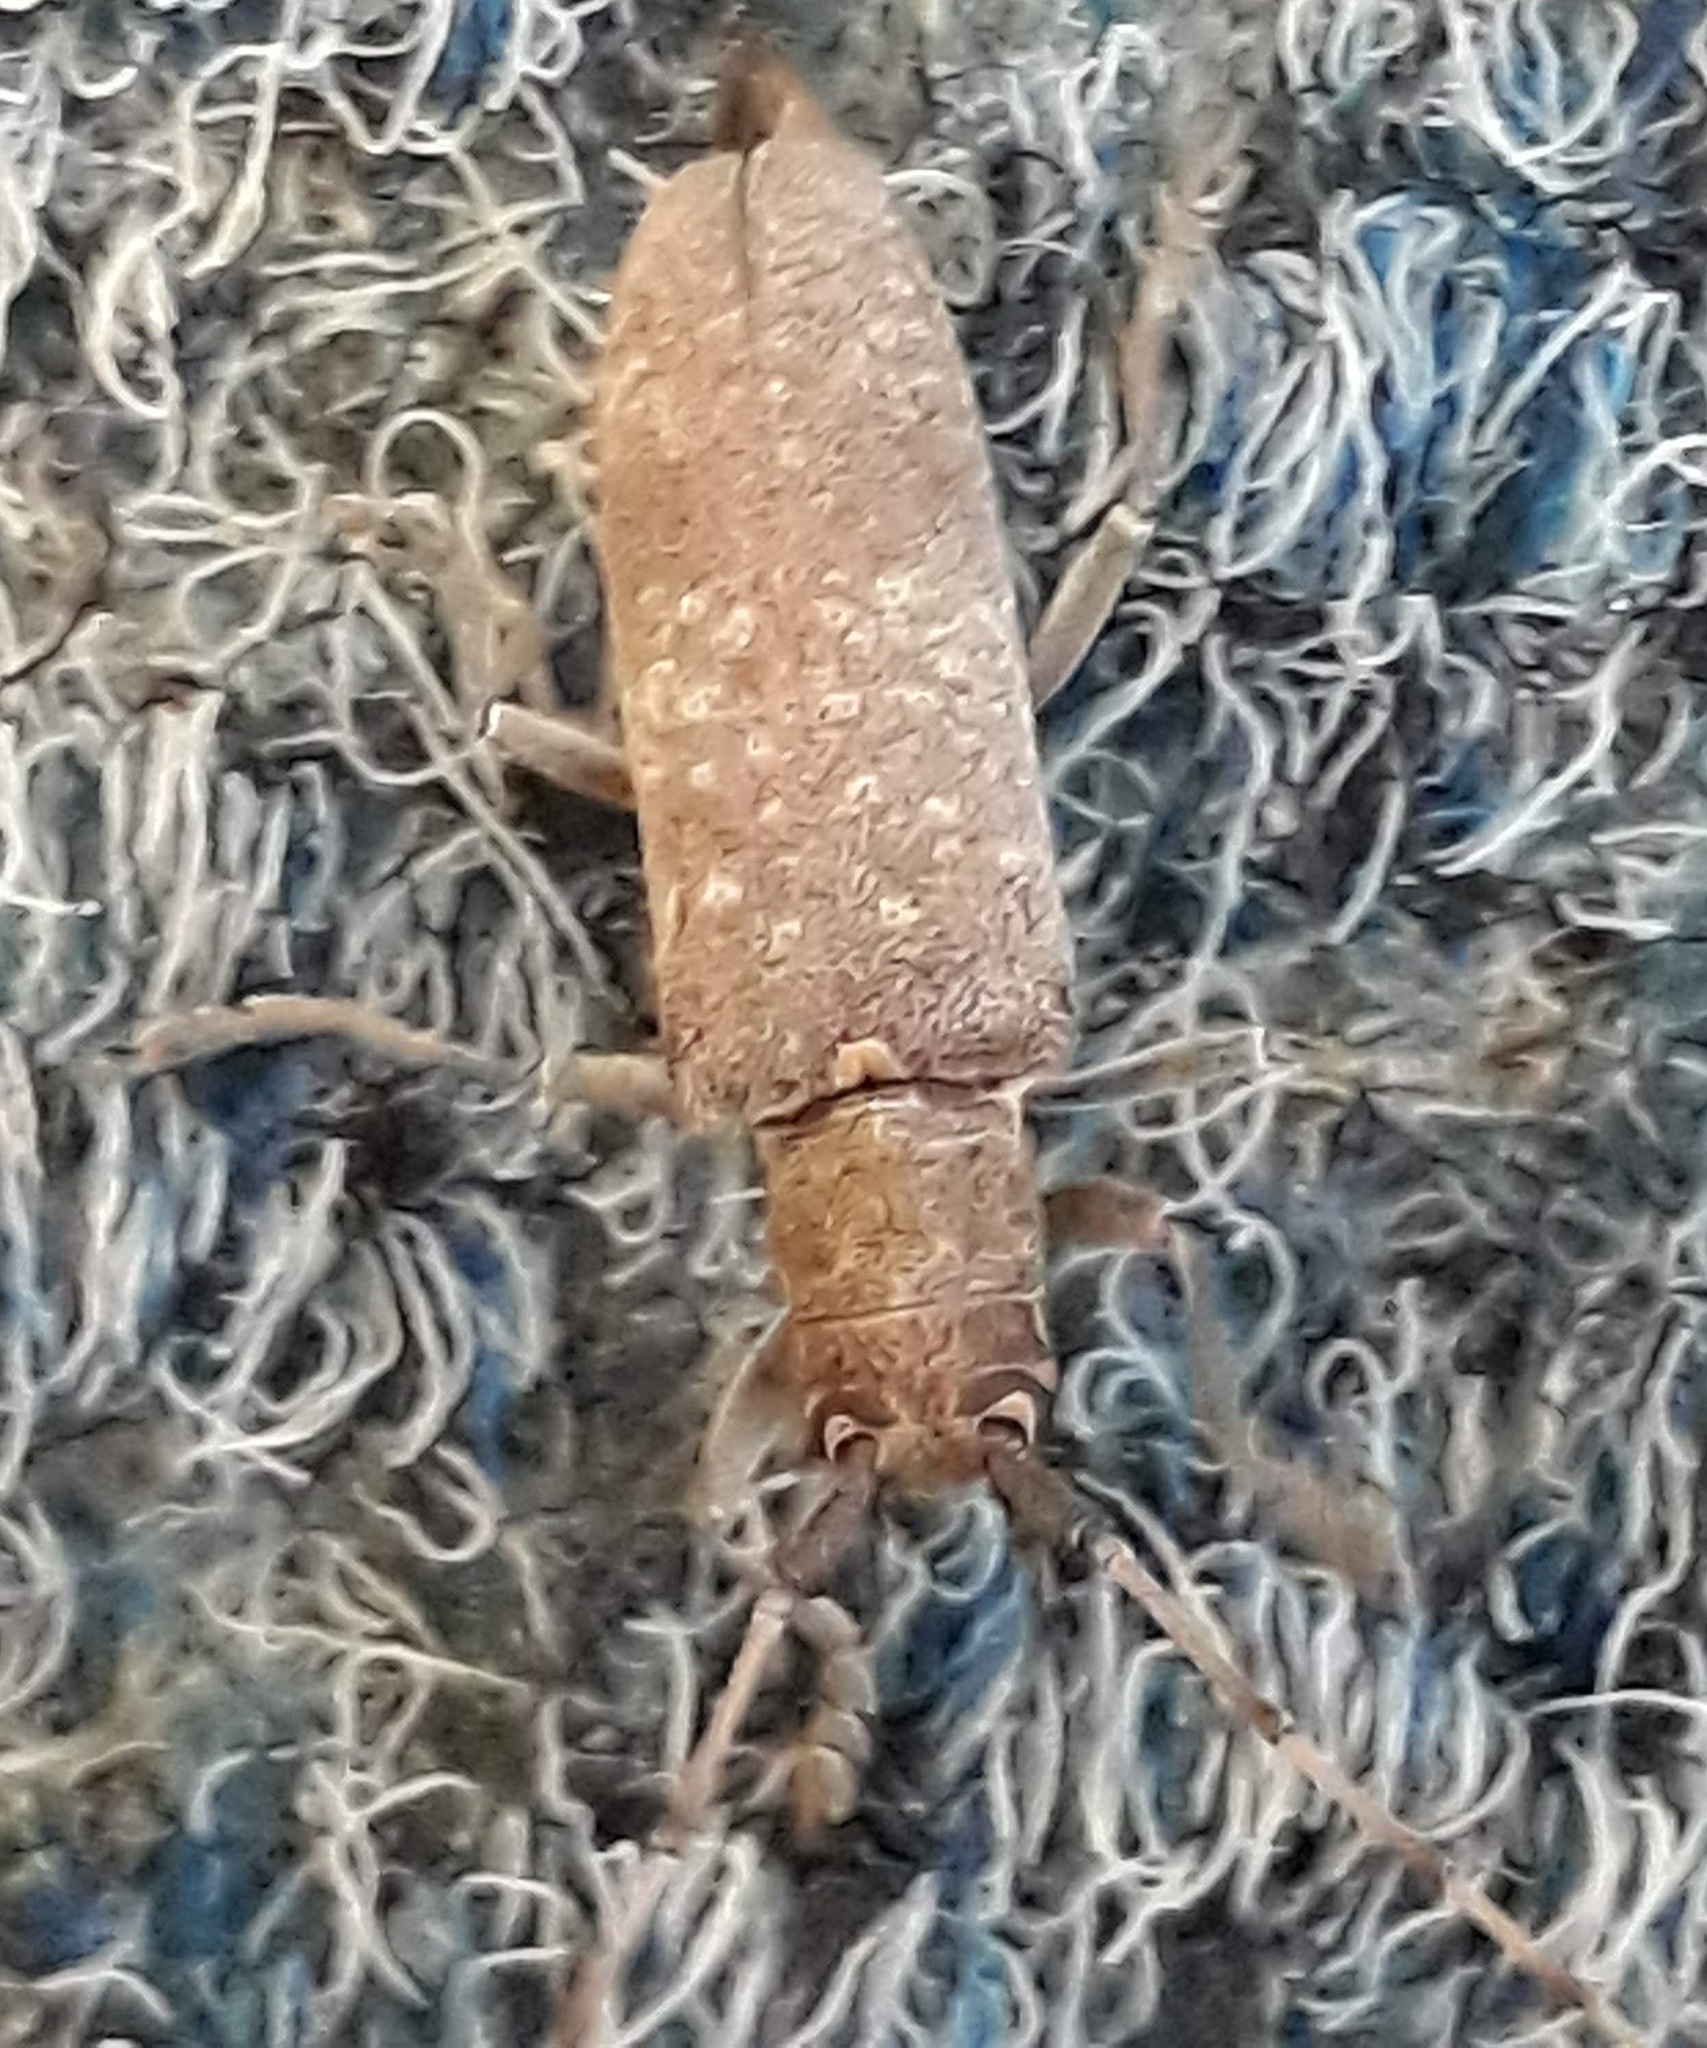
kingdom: Animalia
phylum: Arthropoda
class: Insecta
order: Coleoptera
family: Cerambycidae
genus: Goes
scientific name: Goes tesselatus
